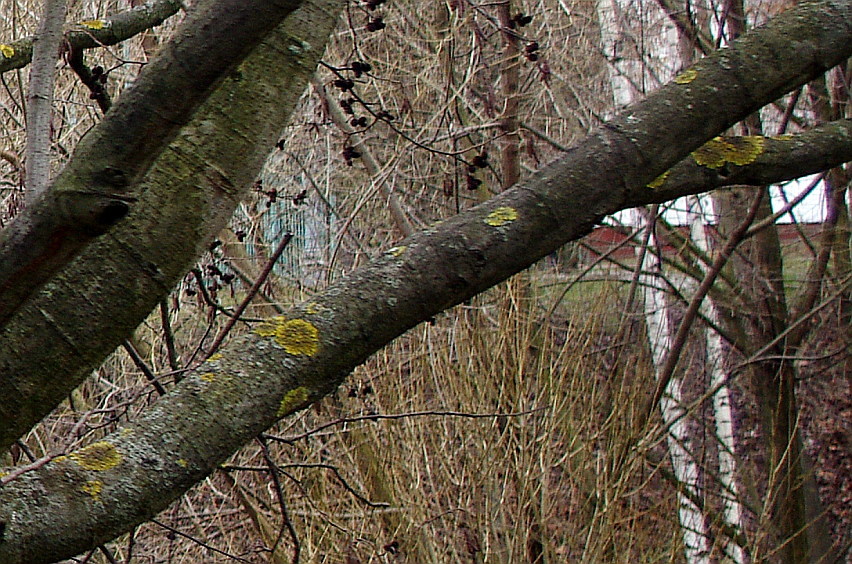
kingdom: Fungi
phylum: Ascomycota
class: Lecanoromycetes
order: Teloschistales
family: Teloschistaceae
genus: Xanthoria
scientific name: Xanthoria parietina
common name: Common orange lichen
